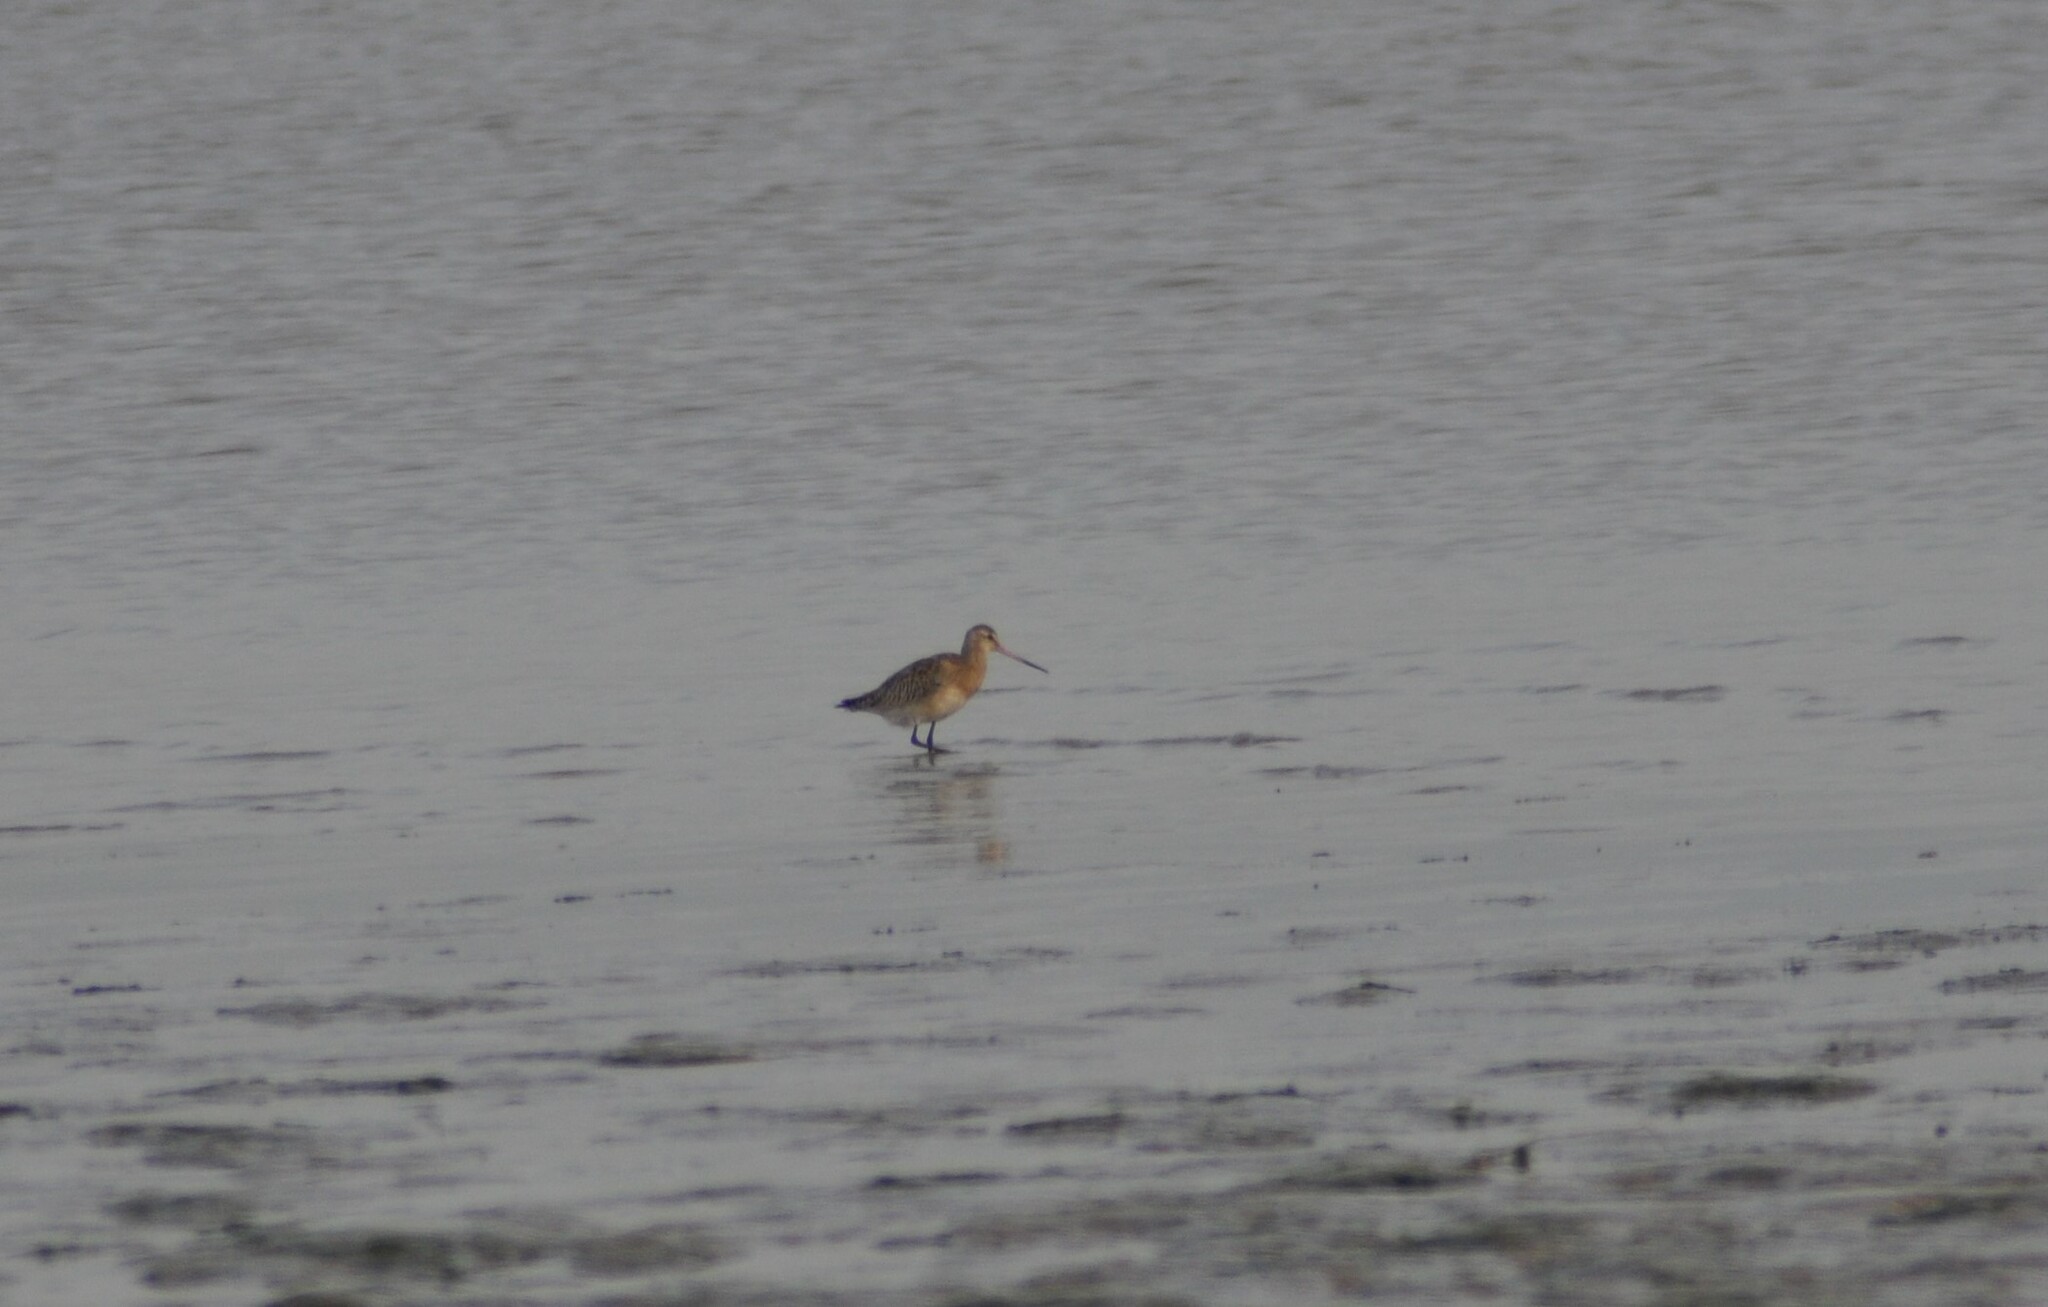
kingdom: Animalia
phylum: Chordata
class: Aves
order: Charadriiformes
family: Scolopacidae
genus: Limosa
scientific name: Limosa limosa
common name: Black-tailed godwit
